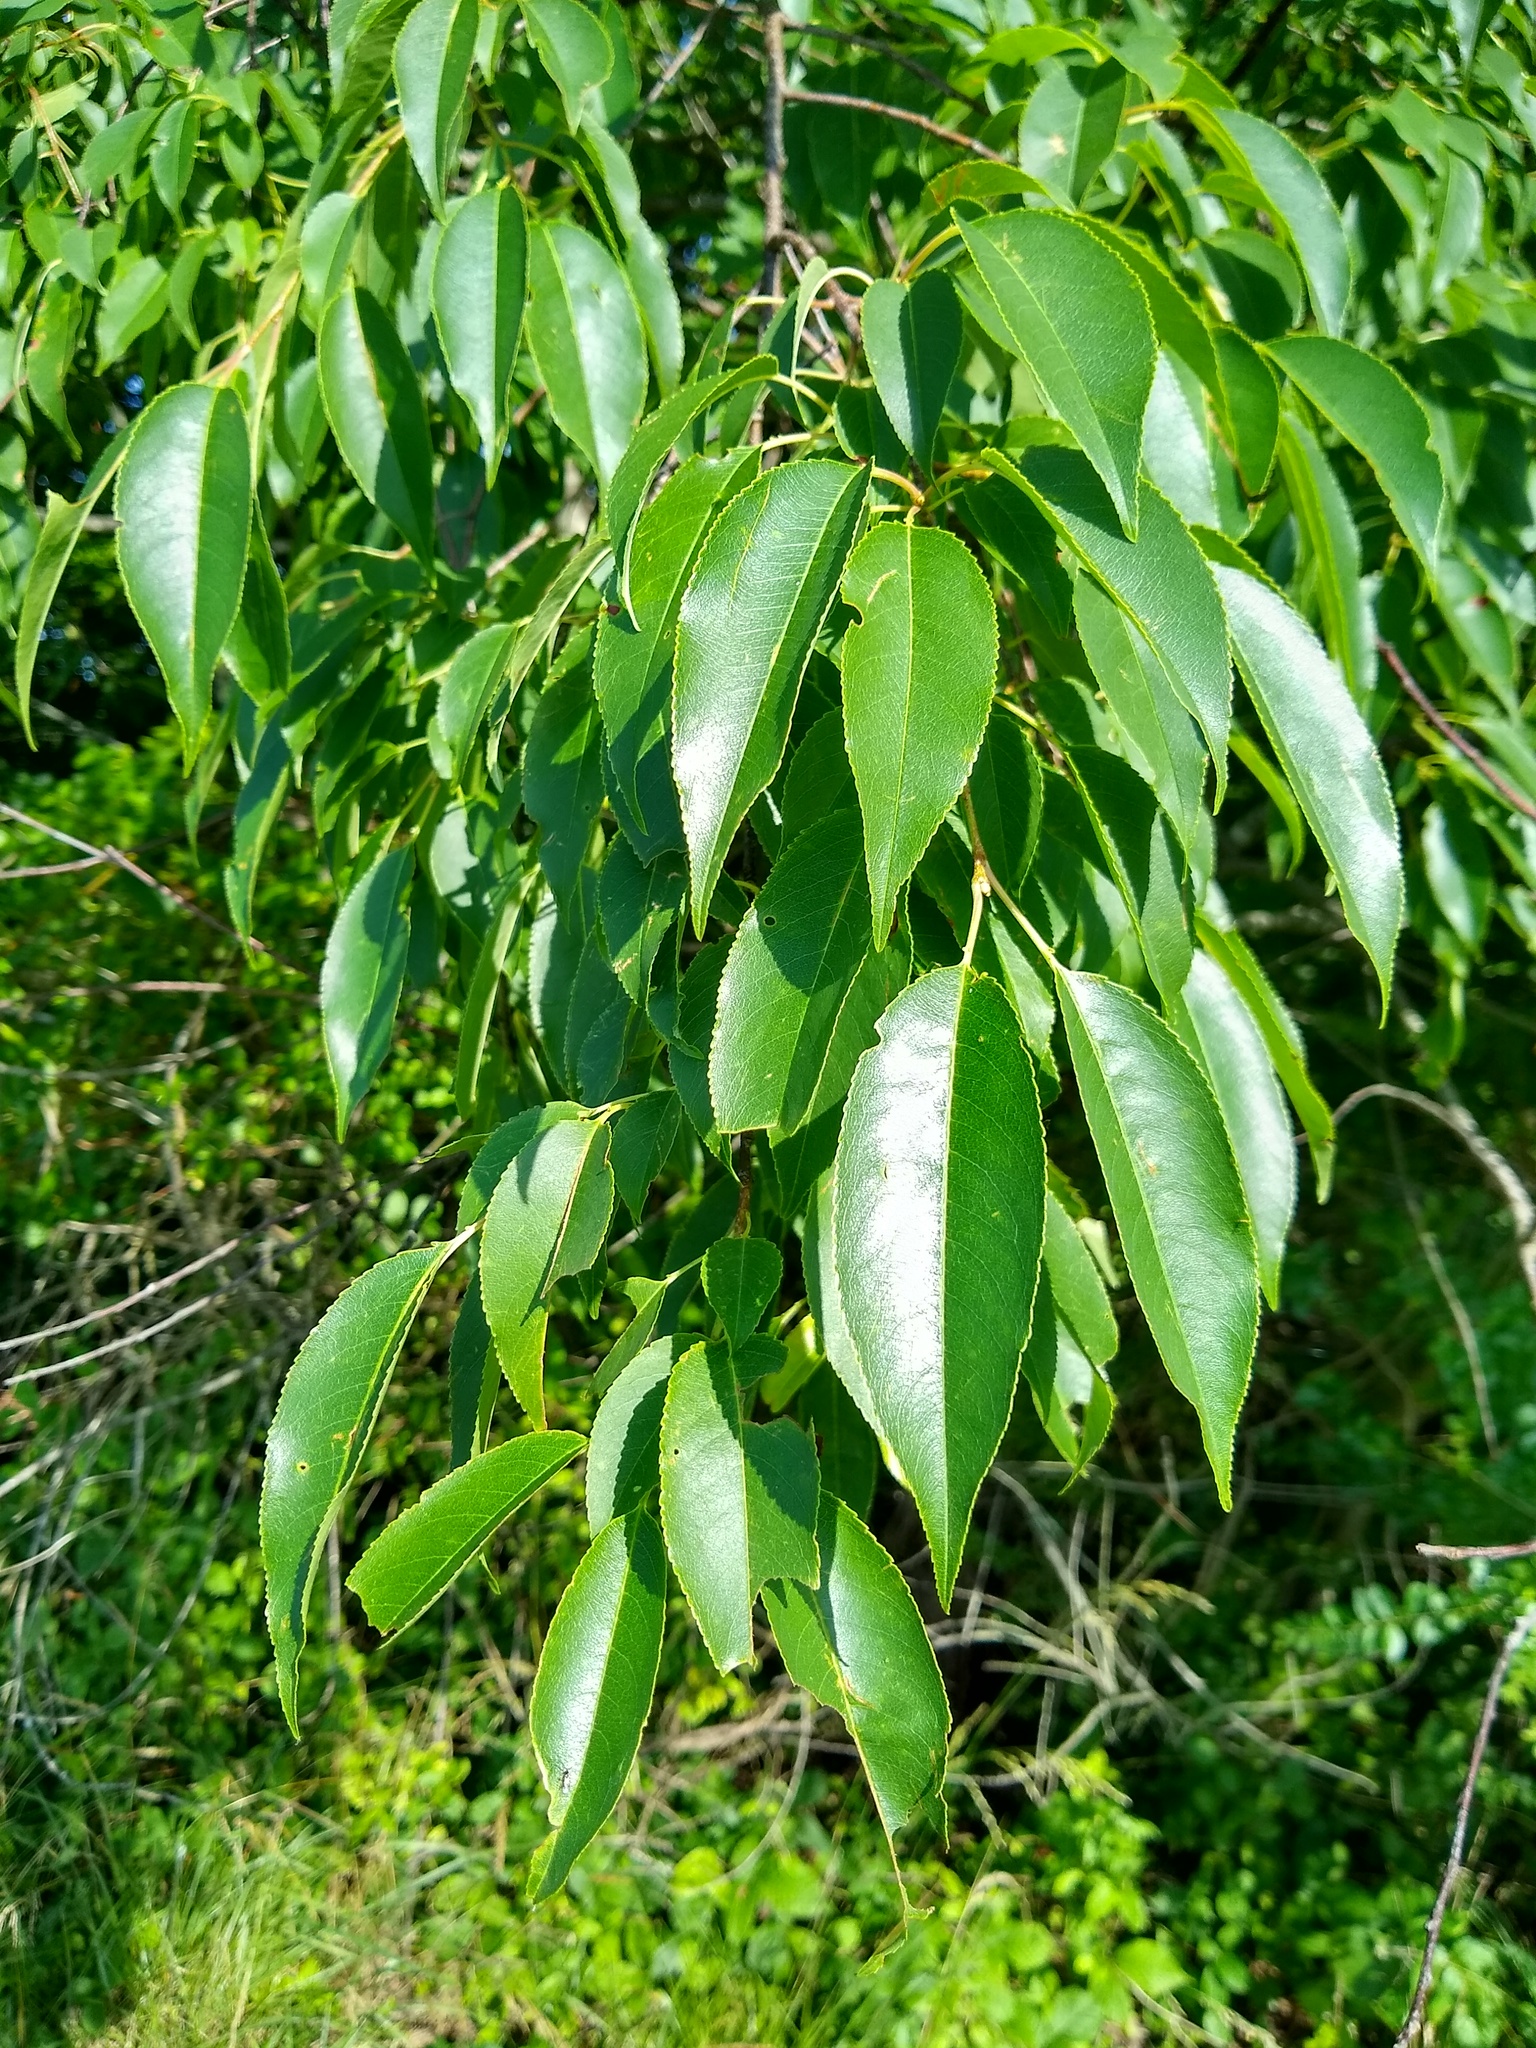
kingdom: Plantae
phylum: Tracheophyta
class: Magnoliopsida
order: Rosales
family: Rosaceae
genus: Prunus
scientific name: Prunus serotina
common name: Black cherry
